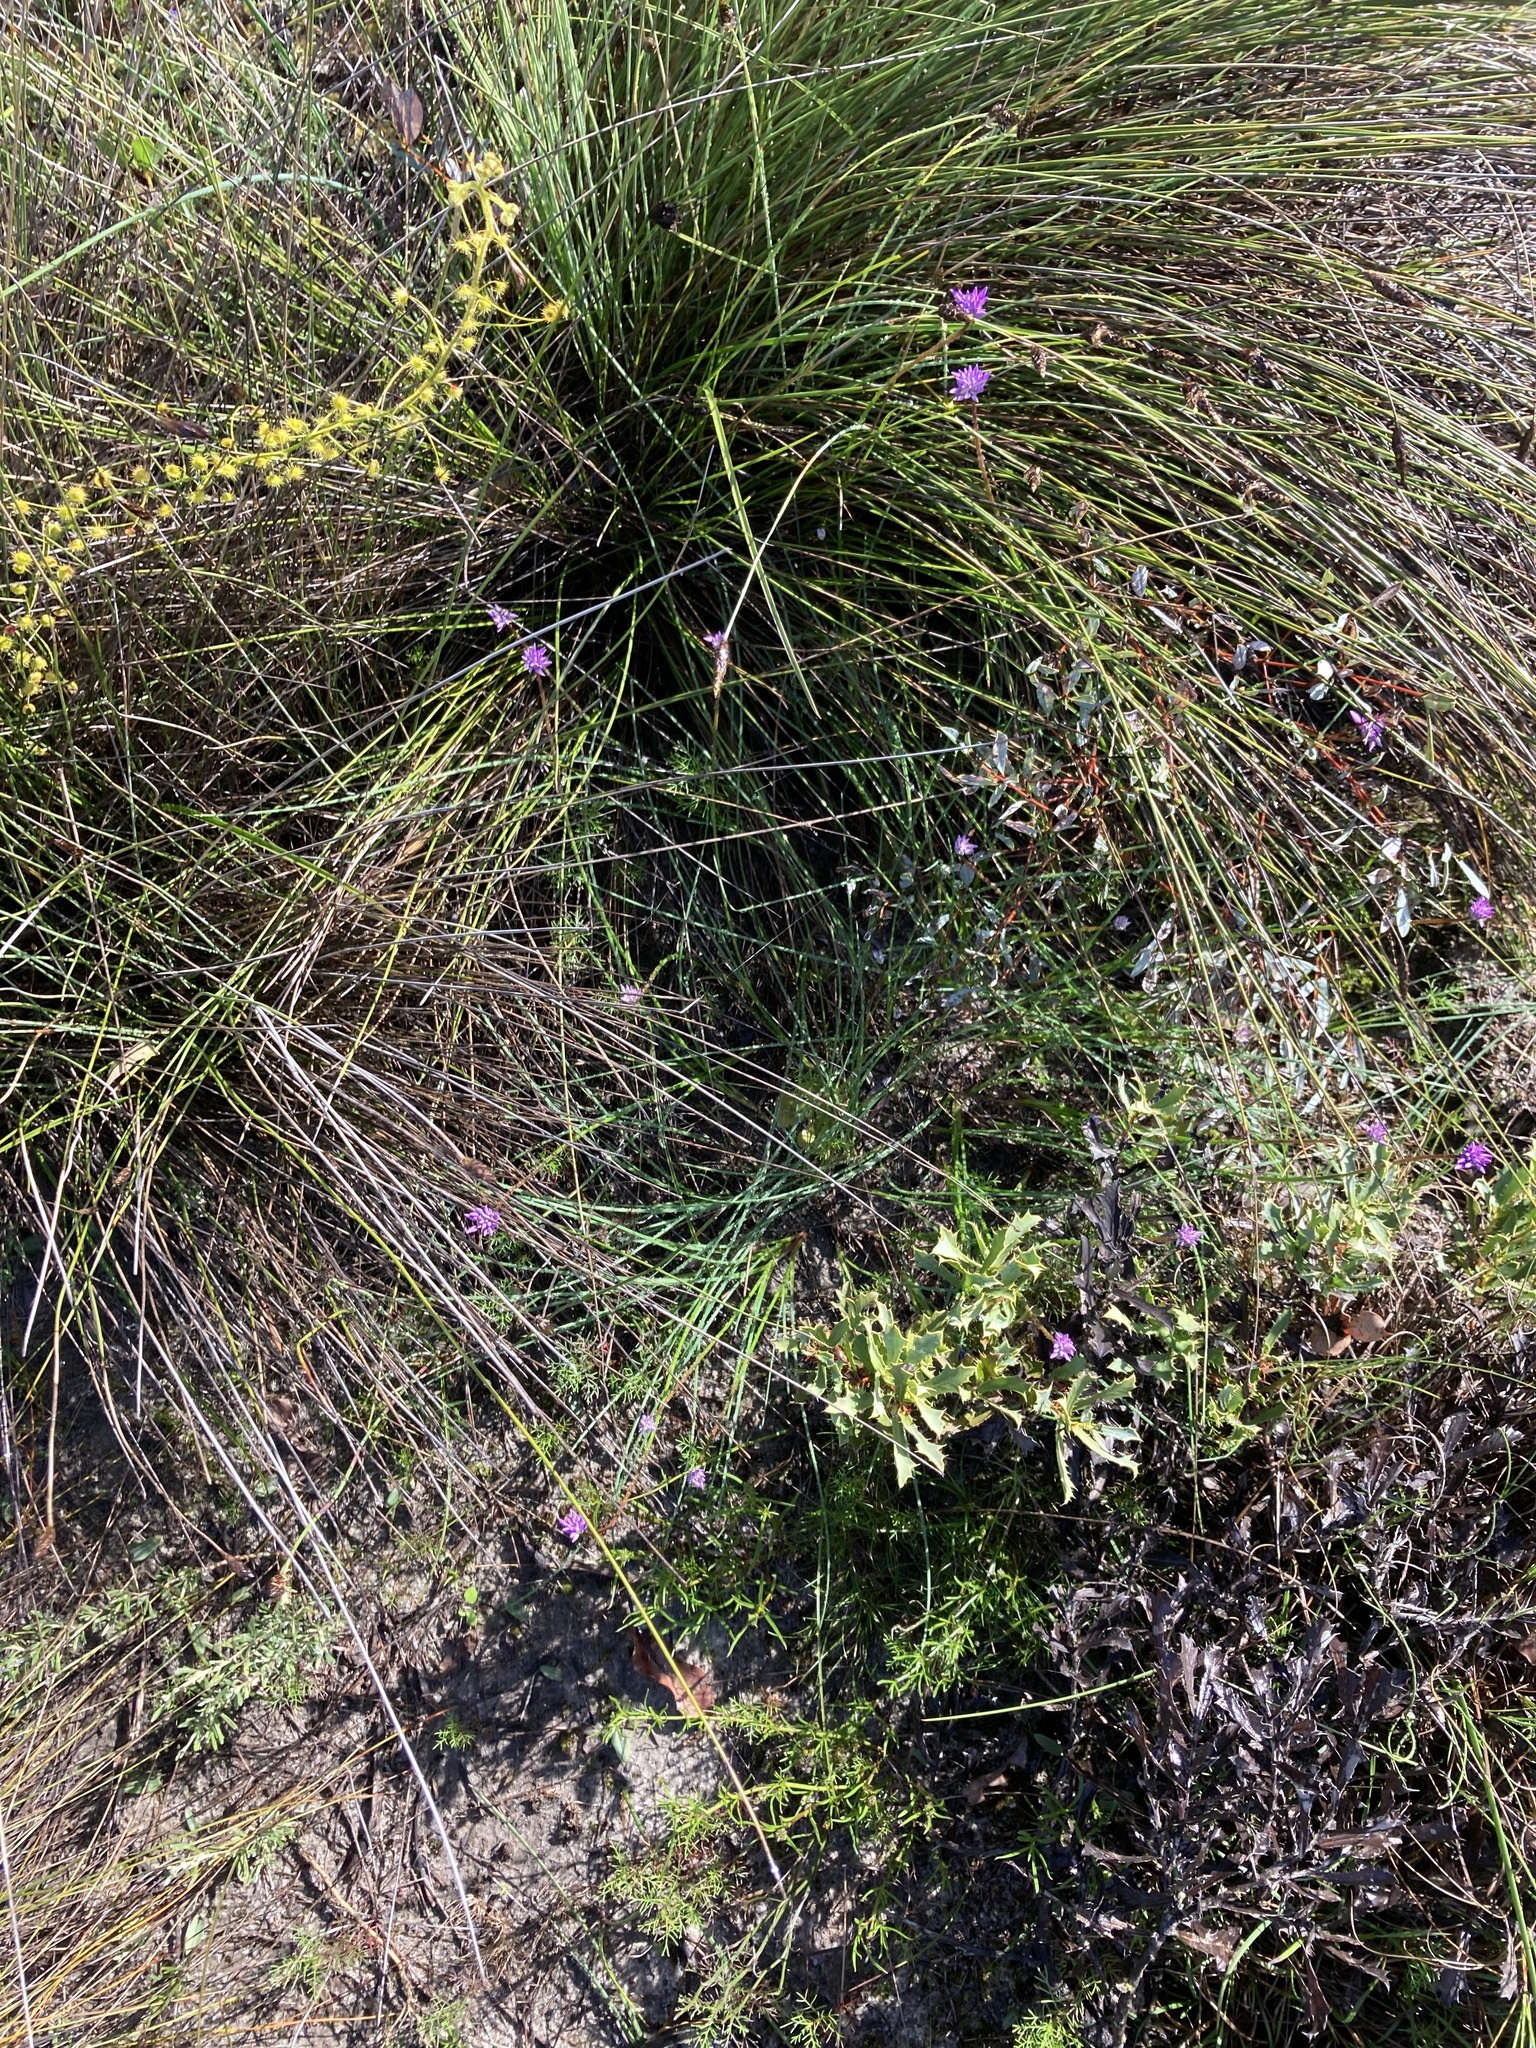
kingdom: Plantae
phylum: Tracheophyta
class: Liliopsida
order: Asparagales
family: Asparagaceae
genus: Sowerbaea
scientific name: Sowerbaea laxiflora
